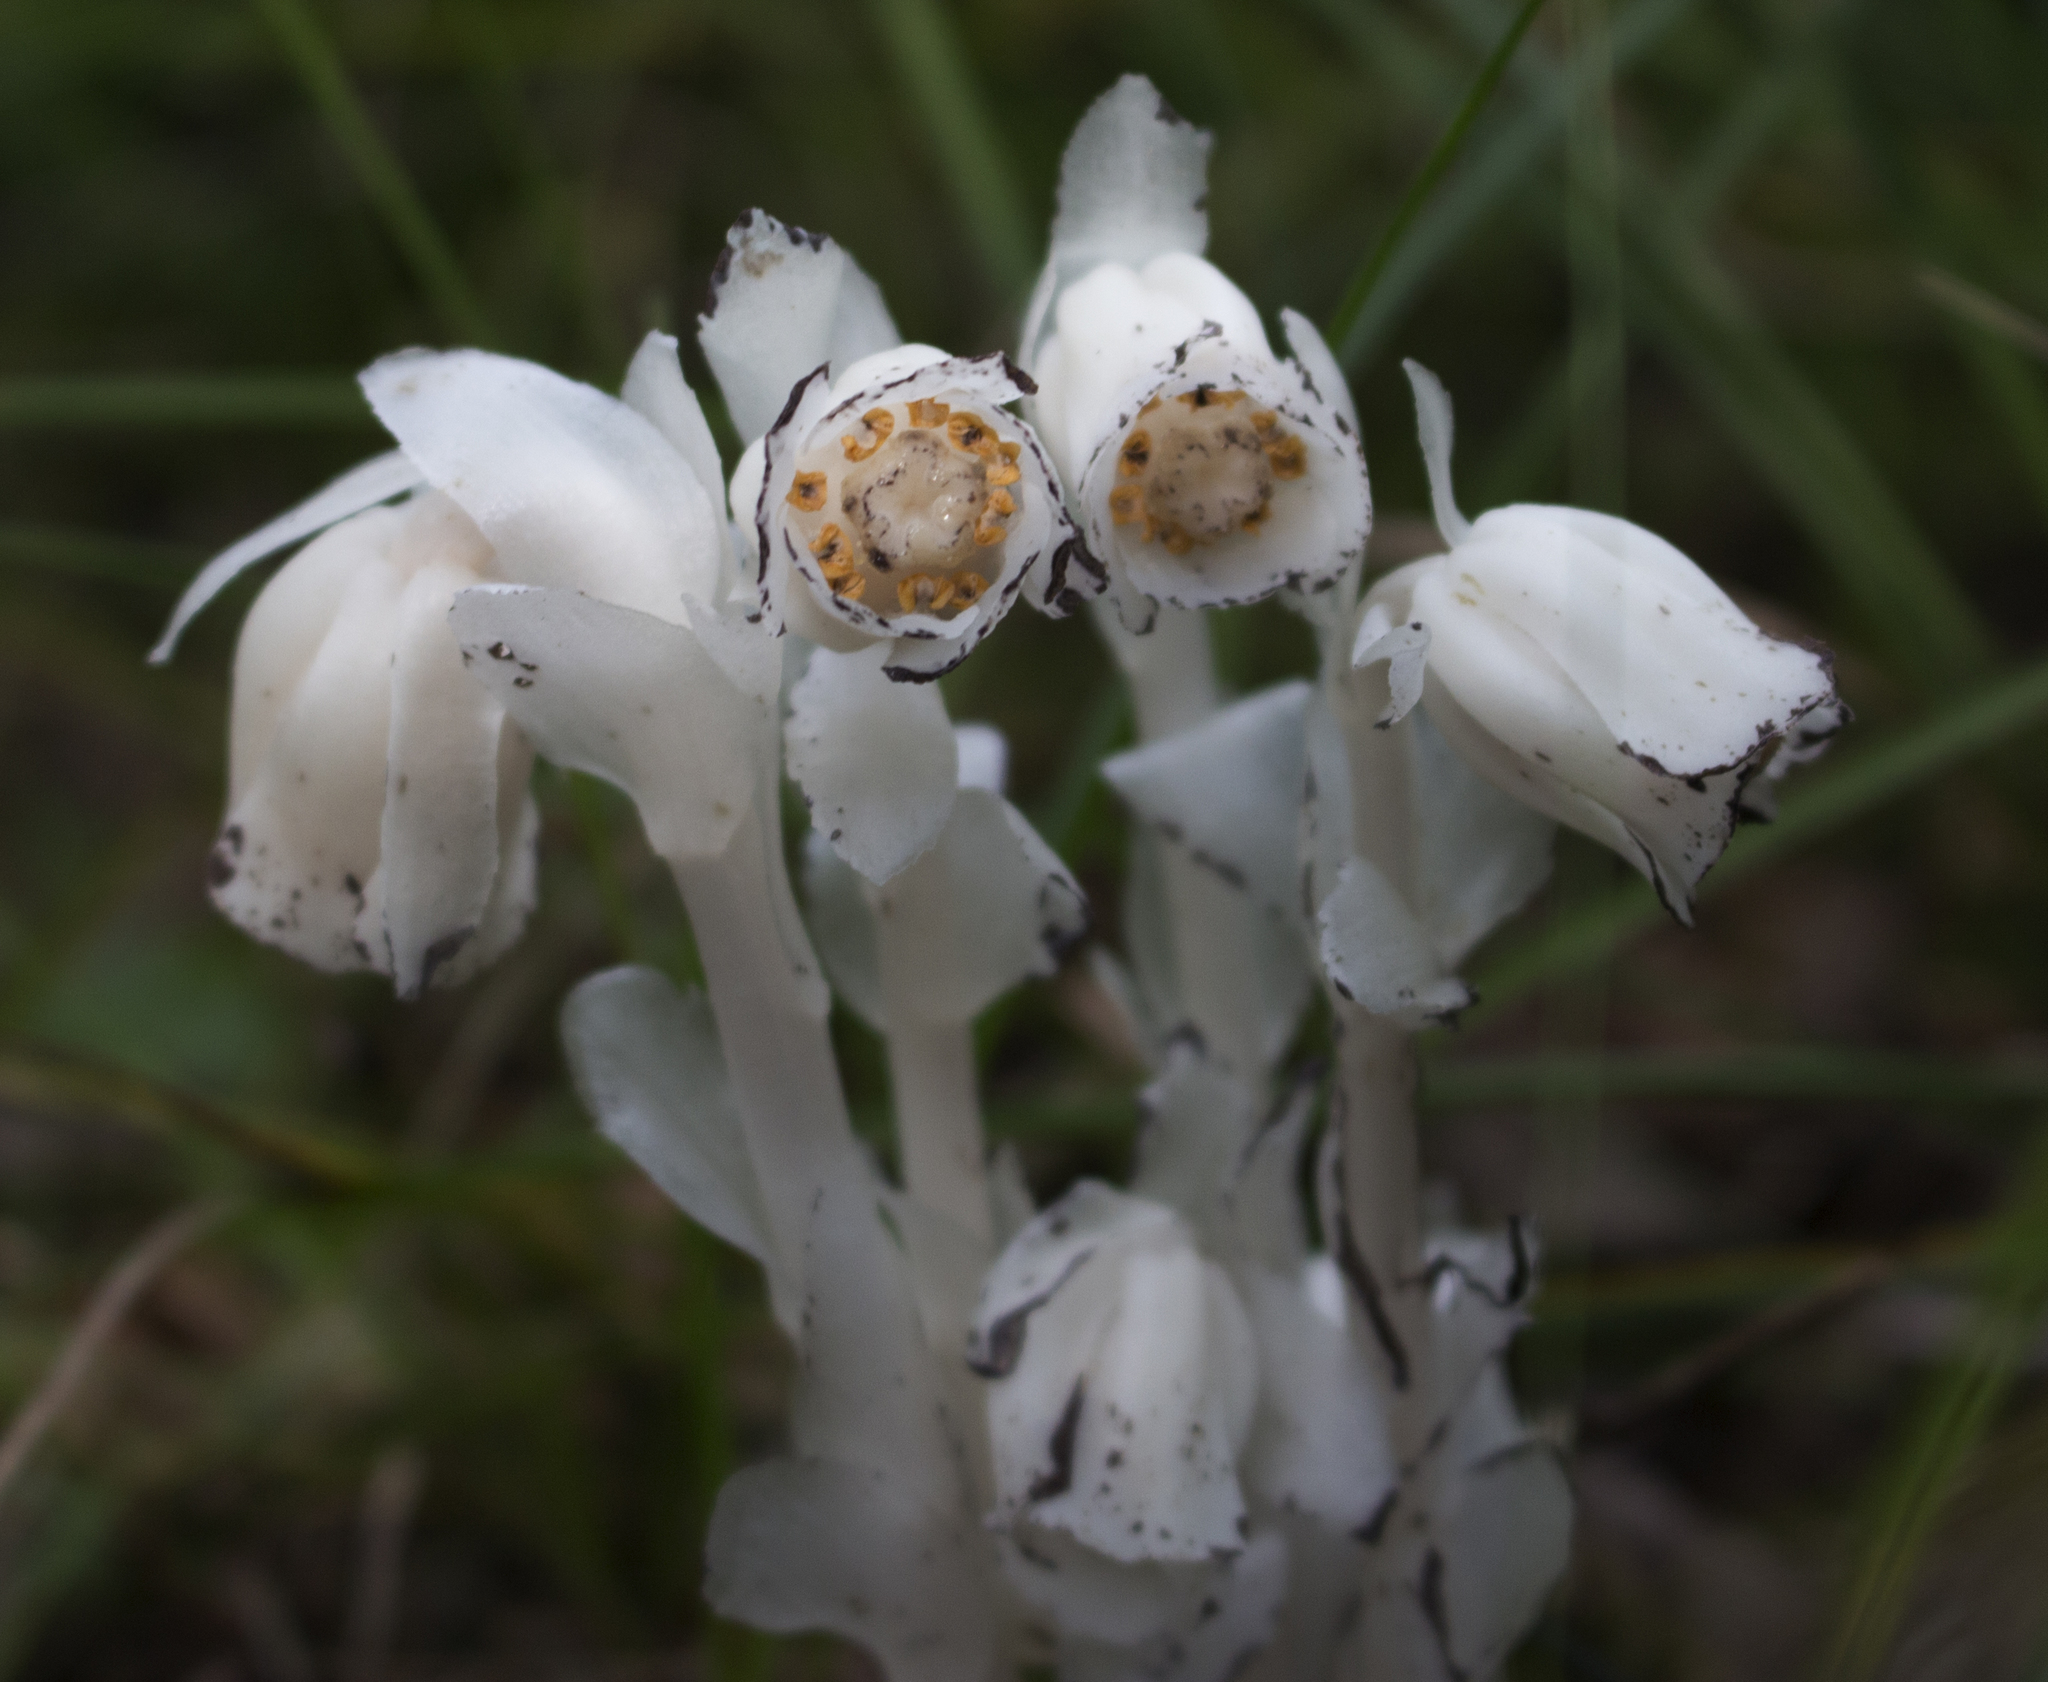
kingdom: Plantae
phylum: Tracheophyta
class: Magnoliopsida
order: Ericales
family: Ericaceae
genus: Monotropa
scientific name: Monotropa uniflora
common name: Convulsion root
